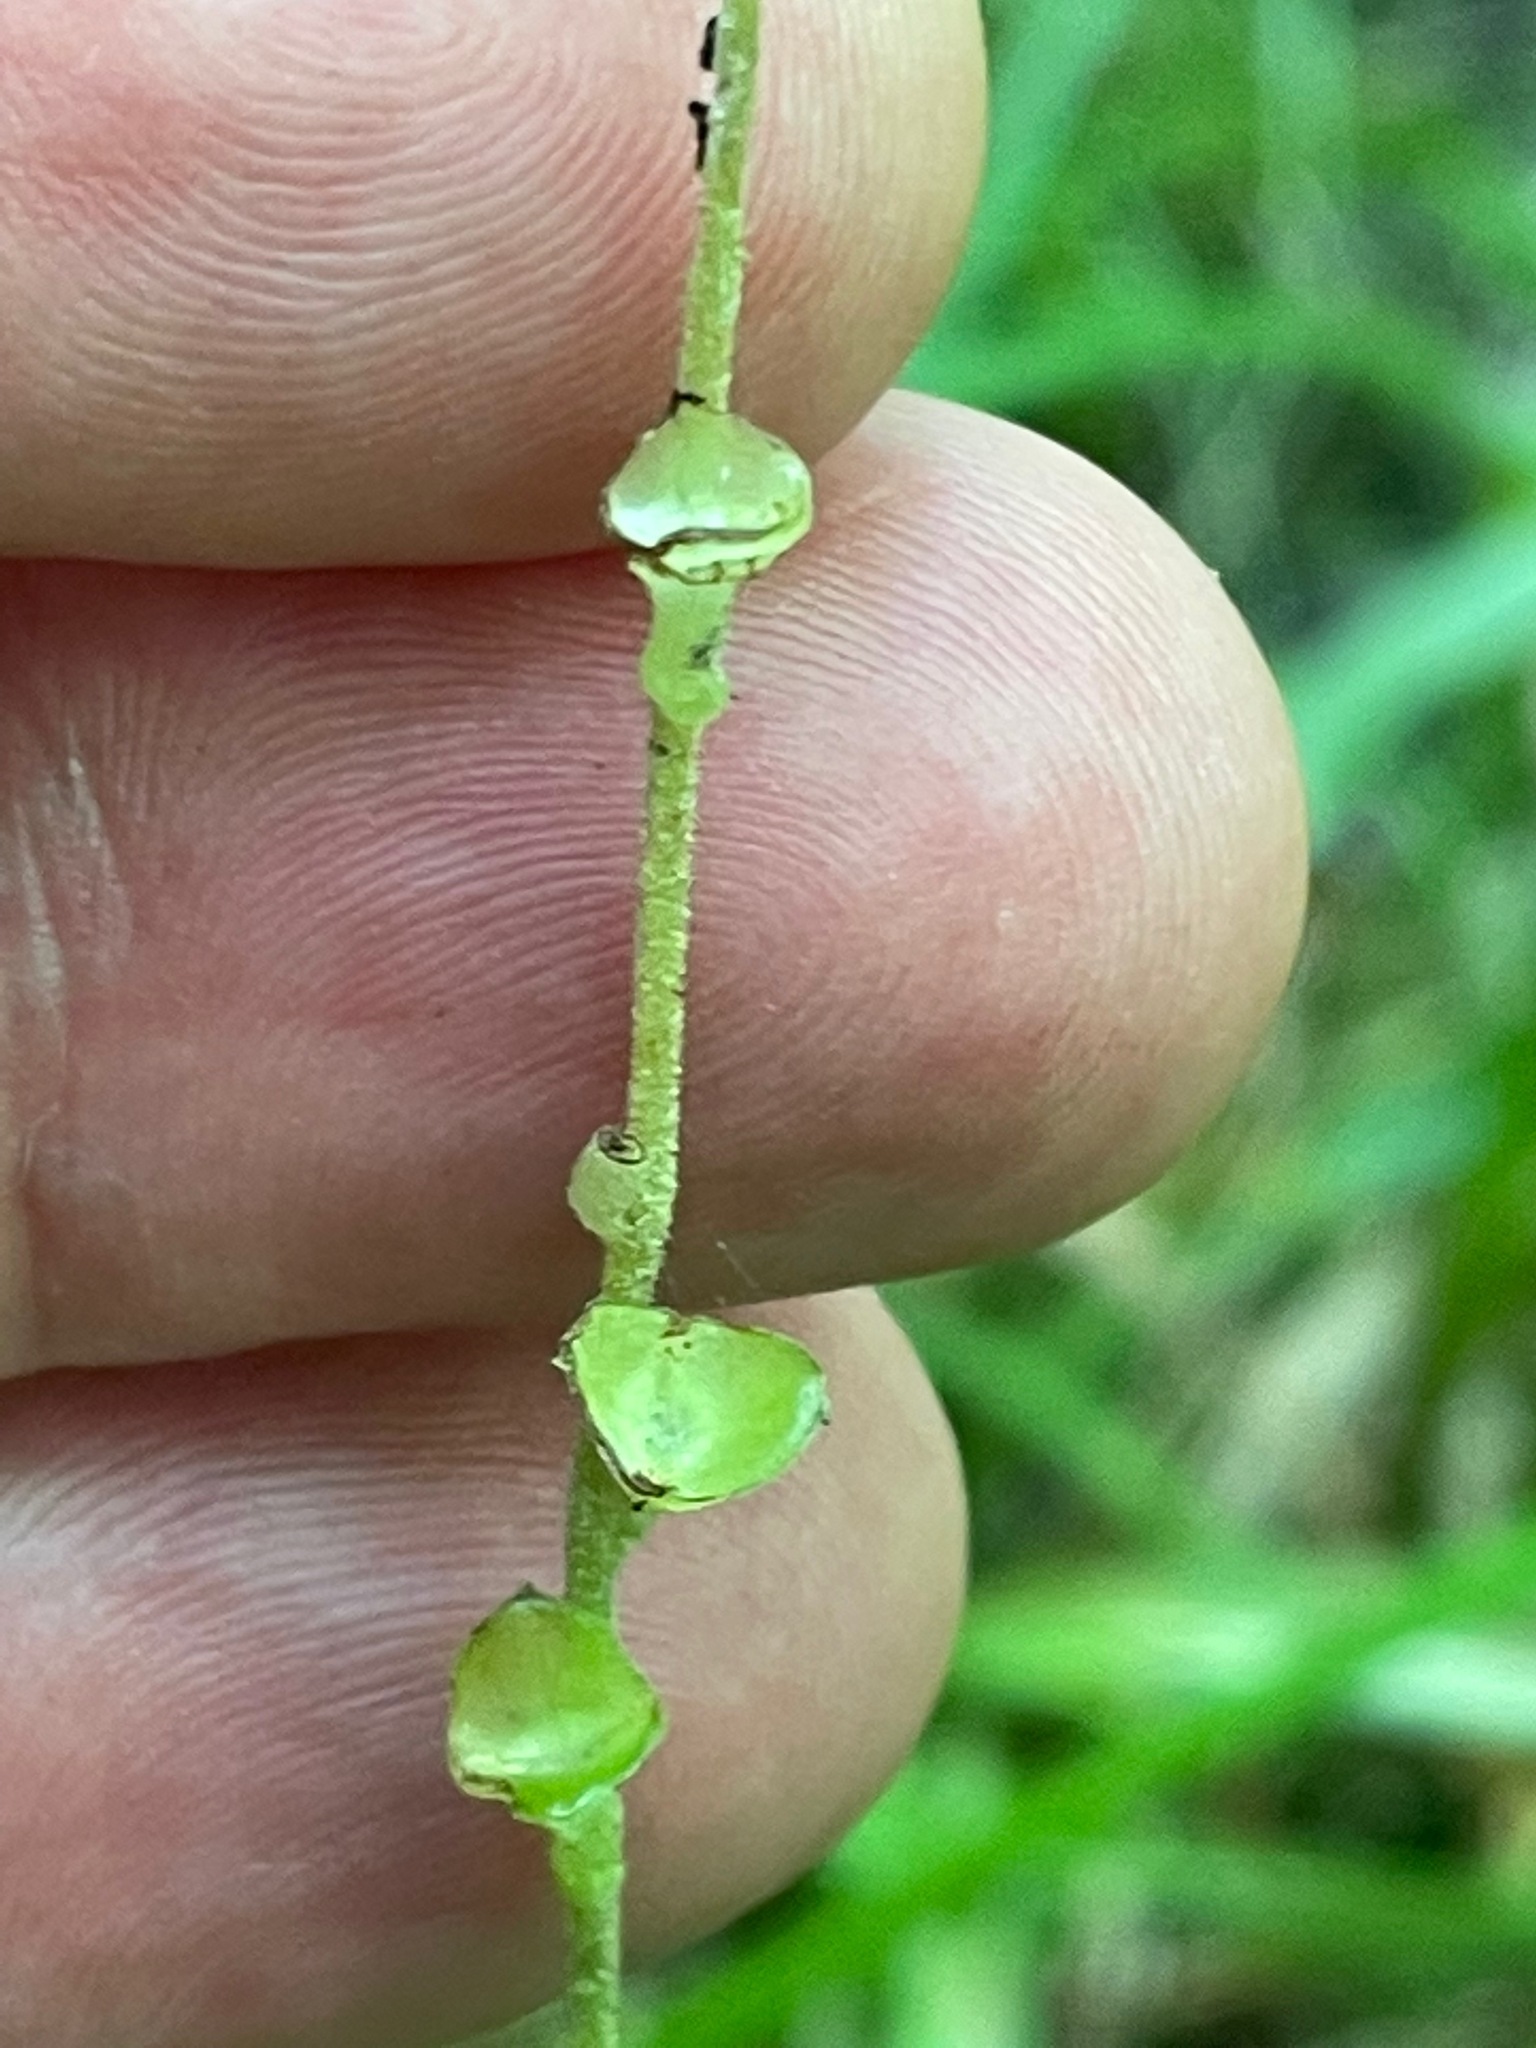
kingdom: Plantae
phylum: Tracheophyta
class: Magnoliopsida
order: Saxifragales
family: Saxifragaceae
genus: Mitella
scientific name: Mitella diphylla
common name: Coolwort
